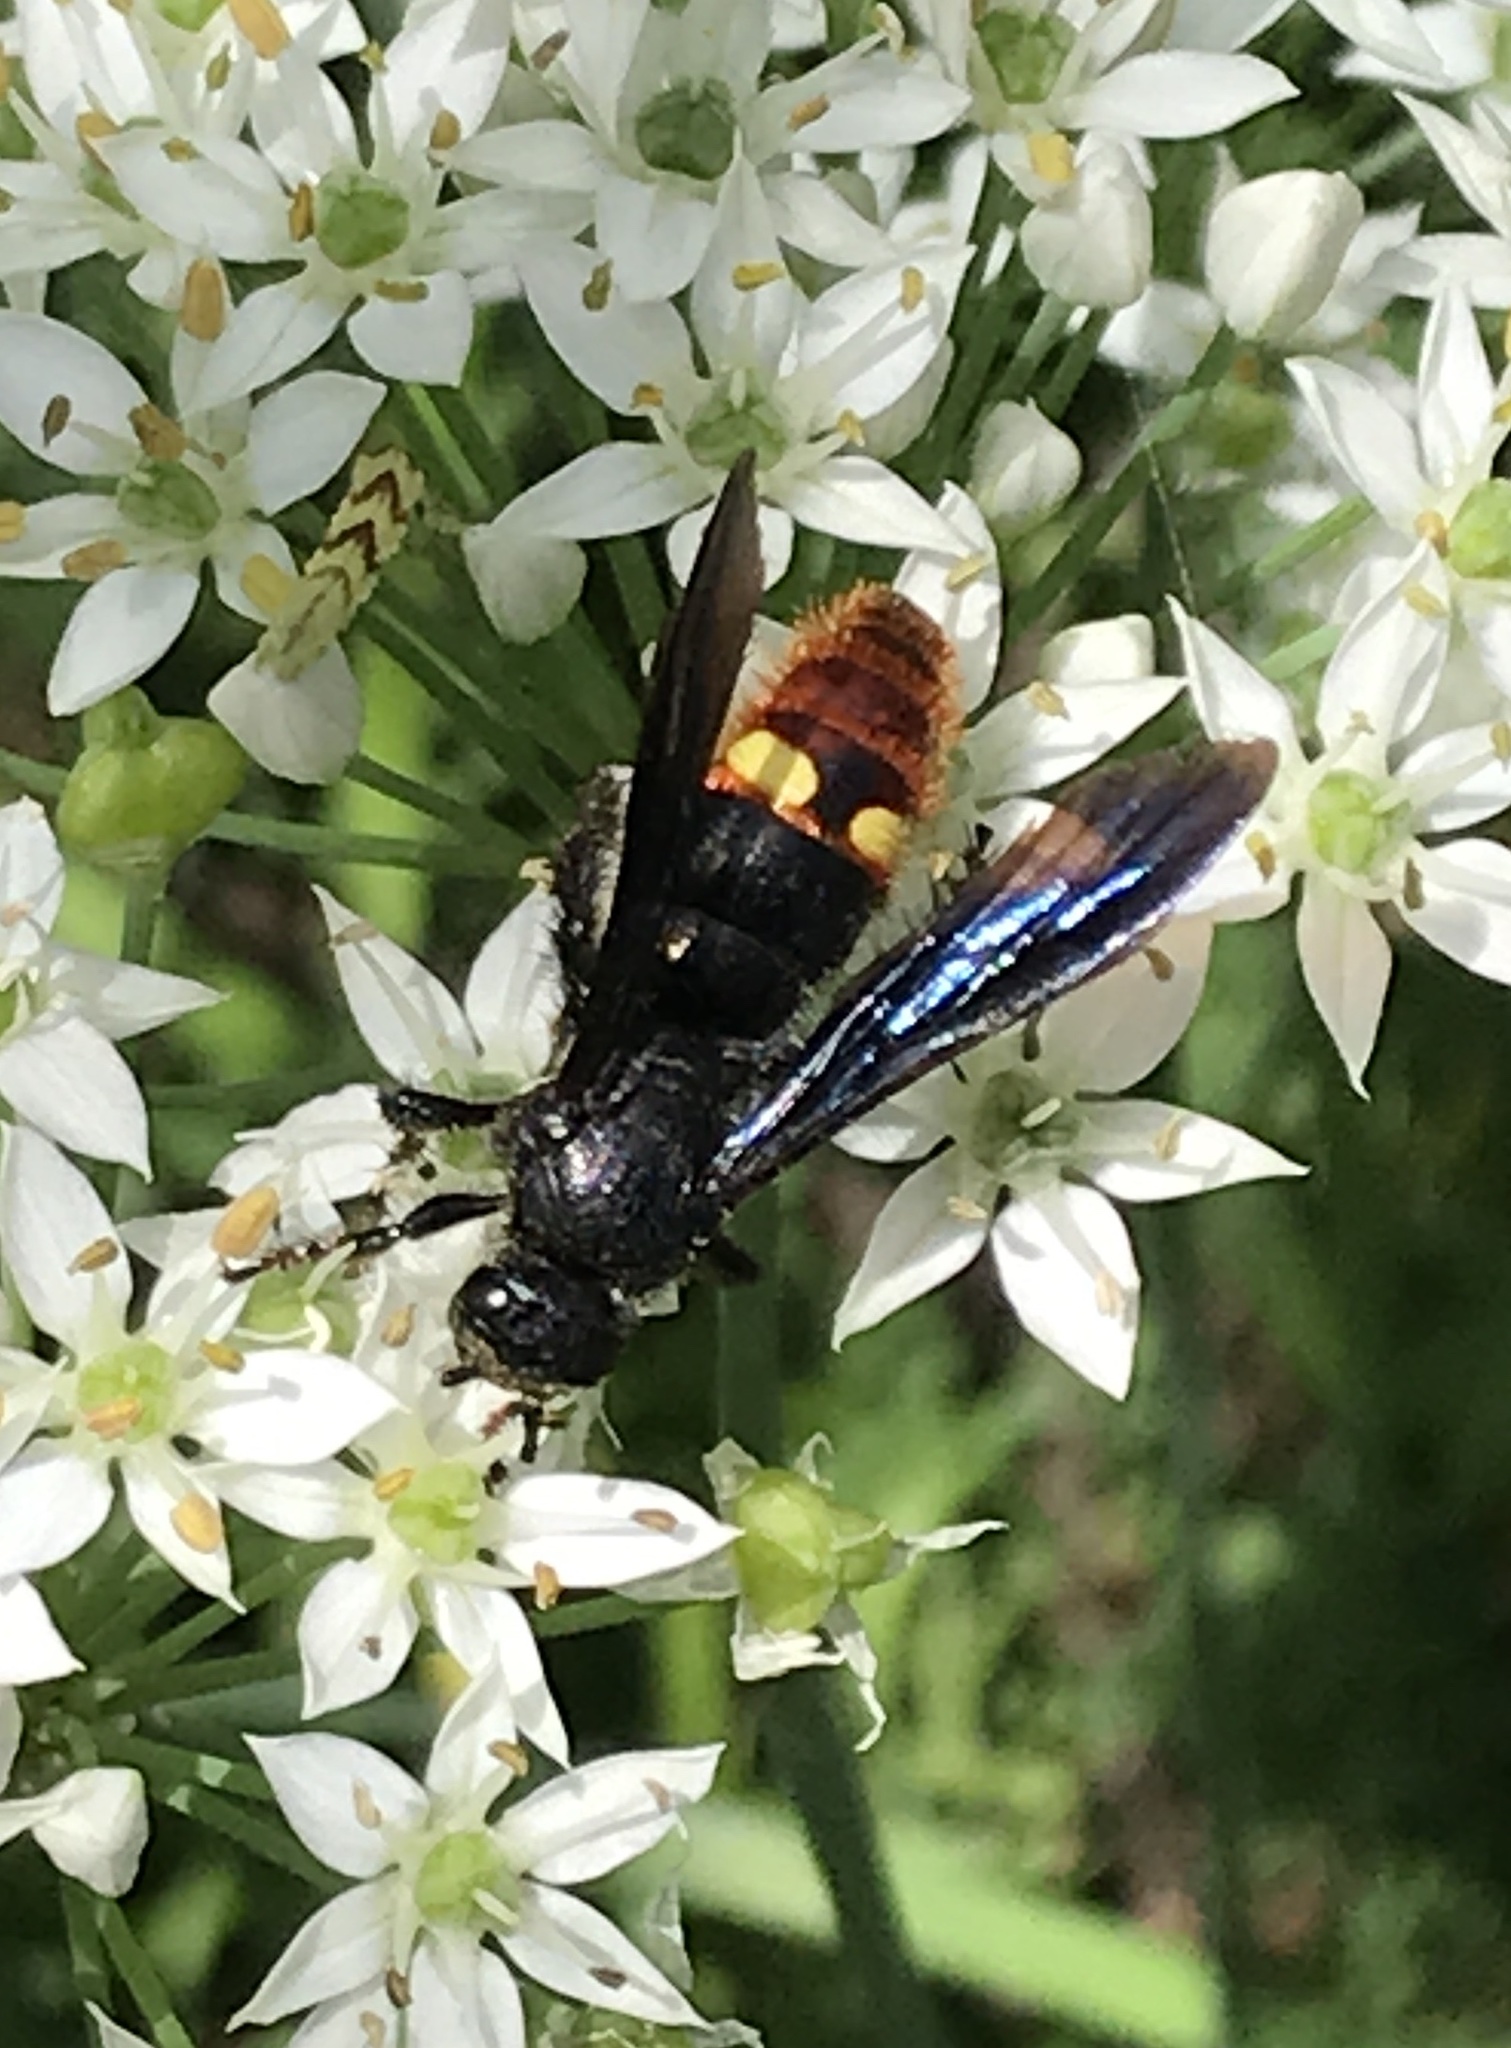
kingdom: Animalia
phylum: Arthropoda
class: Insecta
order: Hymenoptera
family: Scoliidae
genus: Scolia
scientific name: Scolia dubia
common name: Blue-winged scoliid wasp
